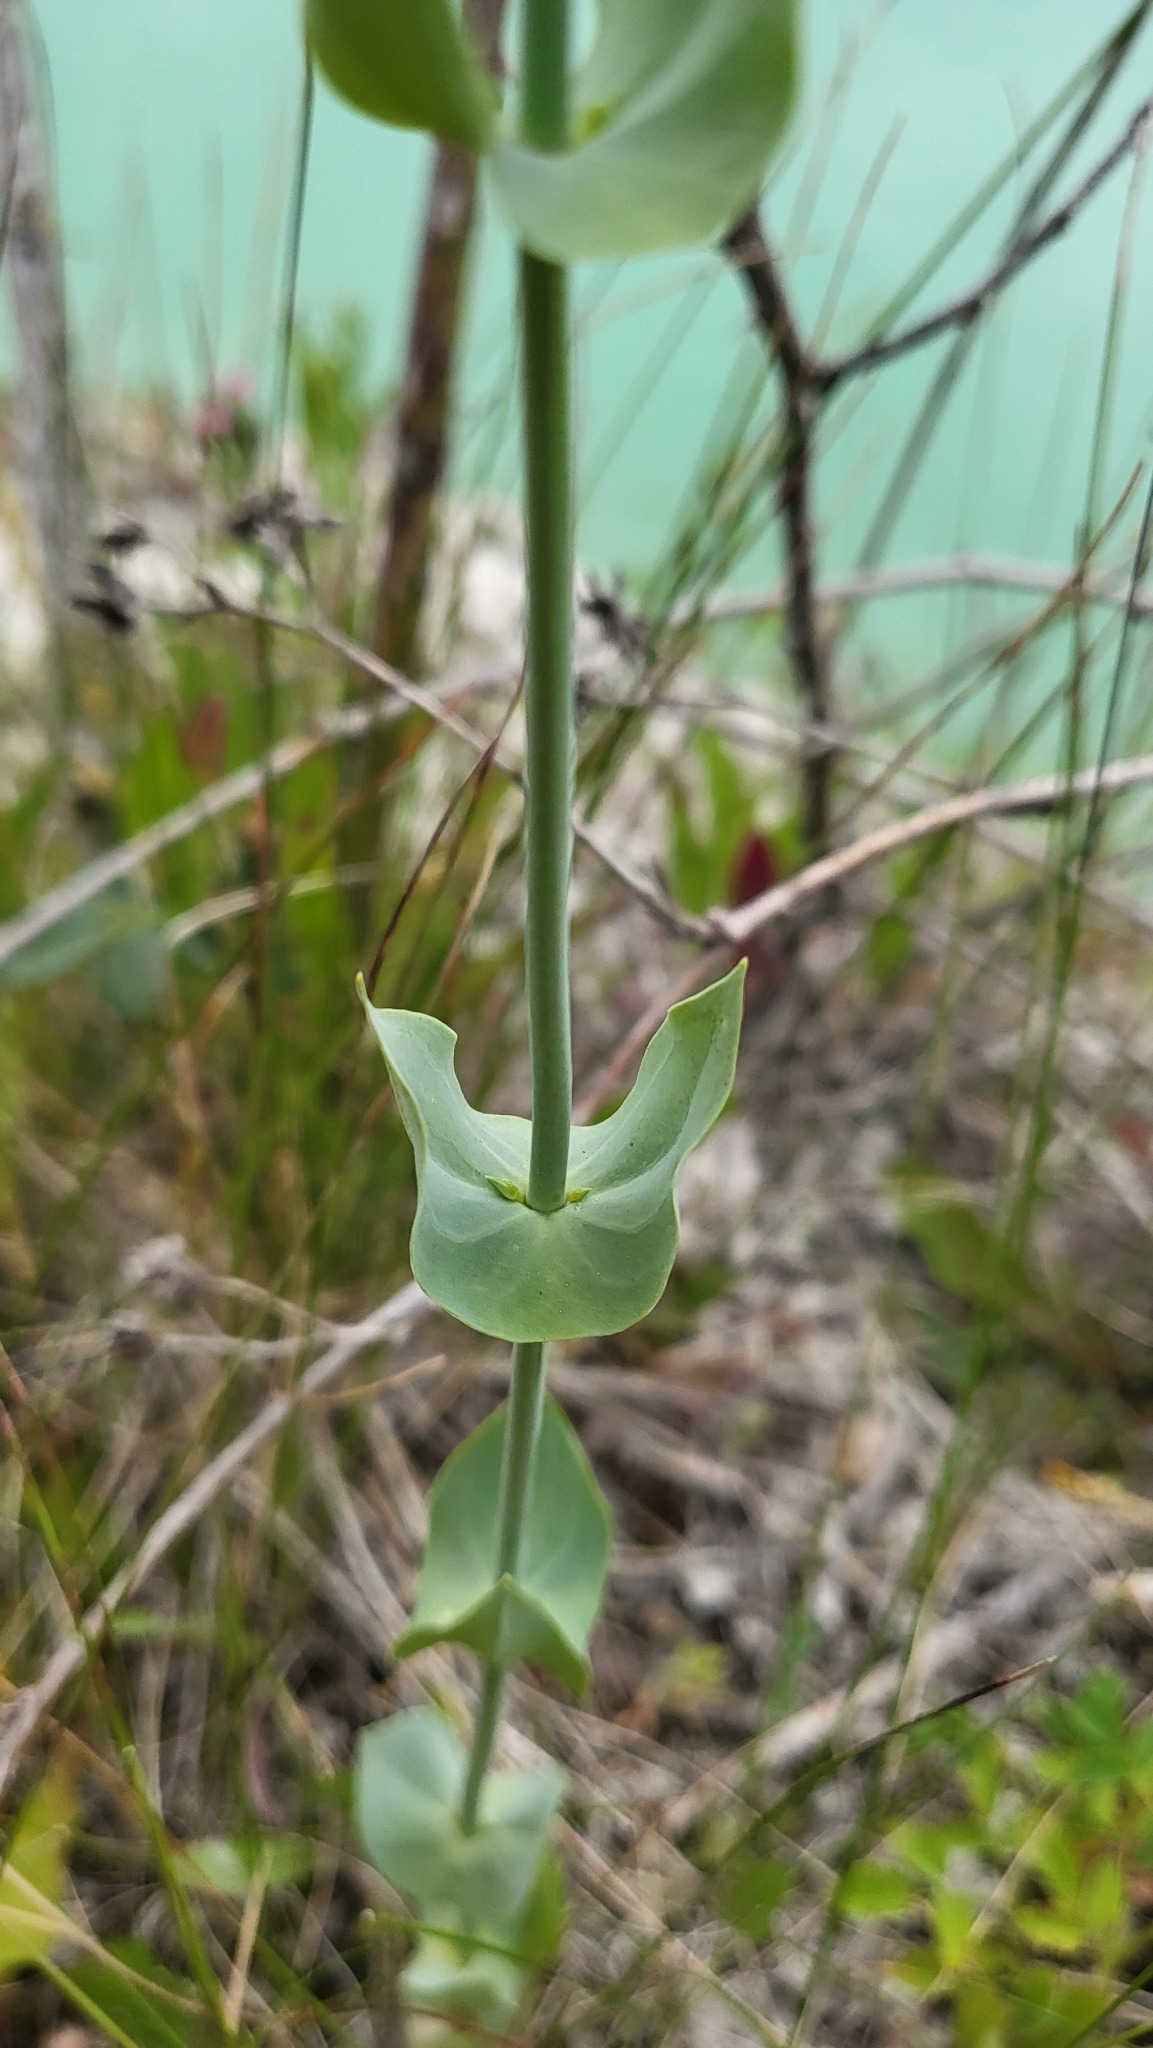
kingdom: Plantae
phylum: Tracheophyta
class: Magnoliopsida
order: Gentianales
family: Gentianaceae
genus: Blackstonia
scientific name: Blackstonia perfoliata
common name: Yellow-wort
